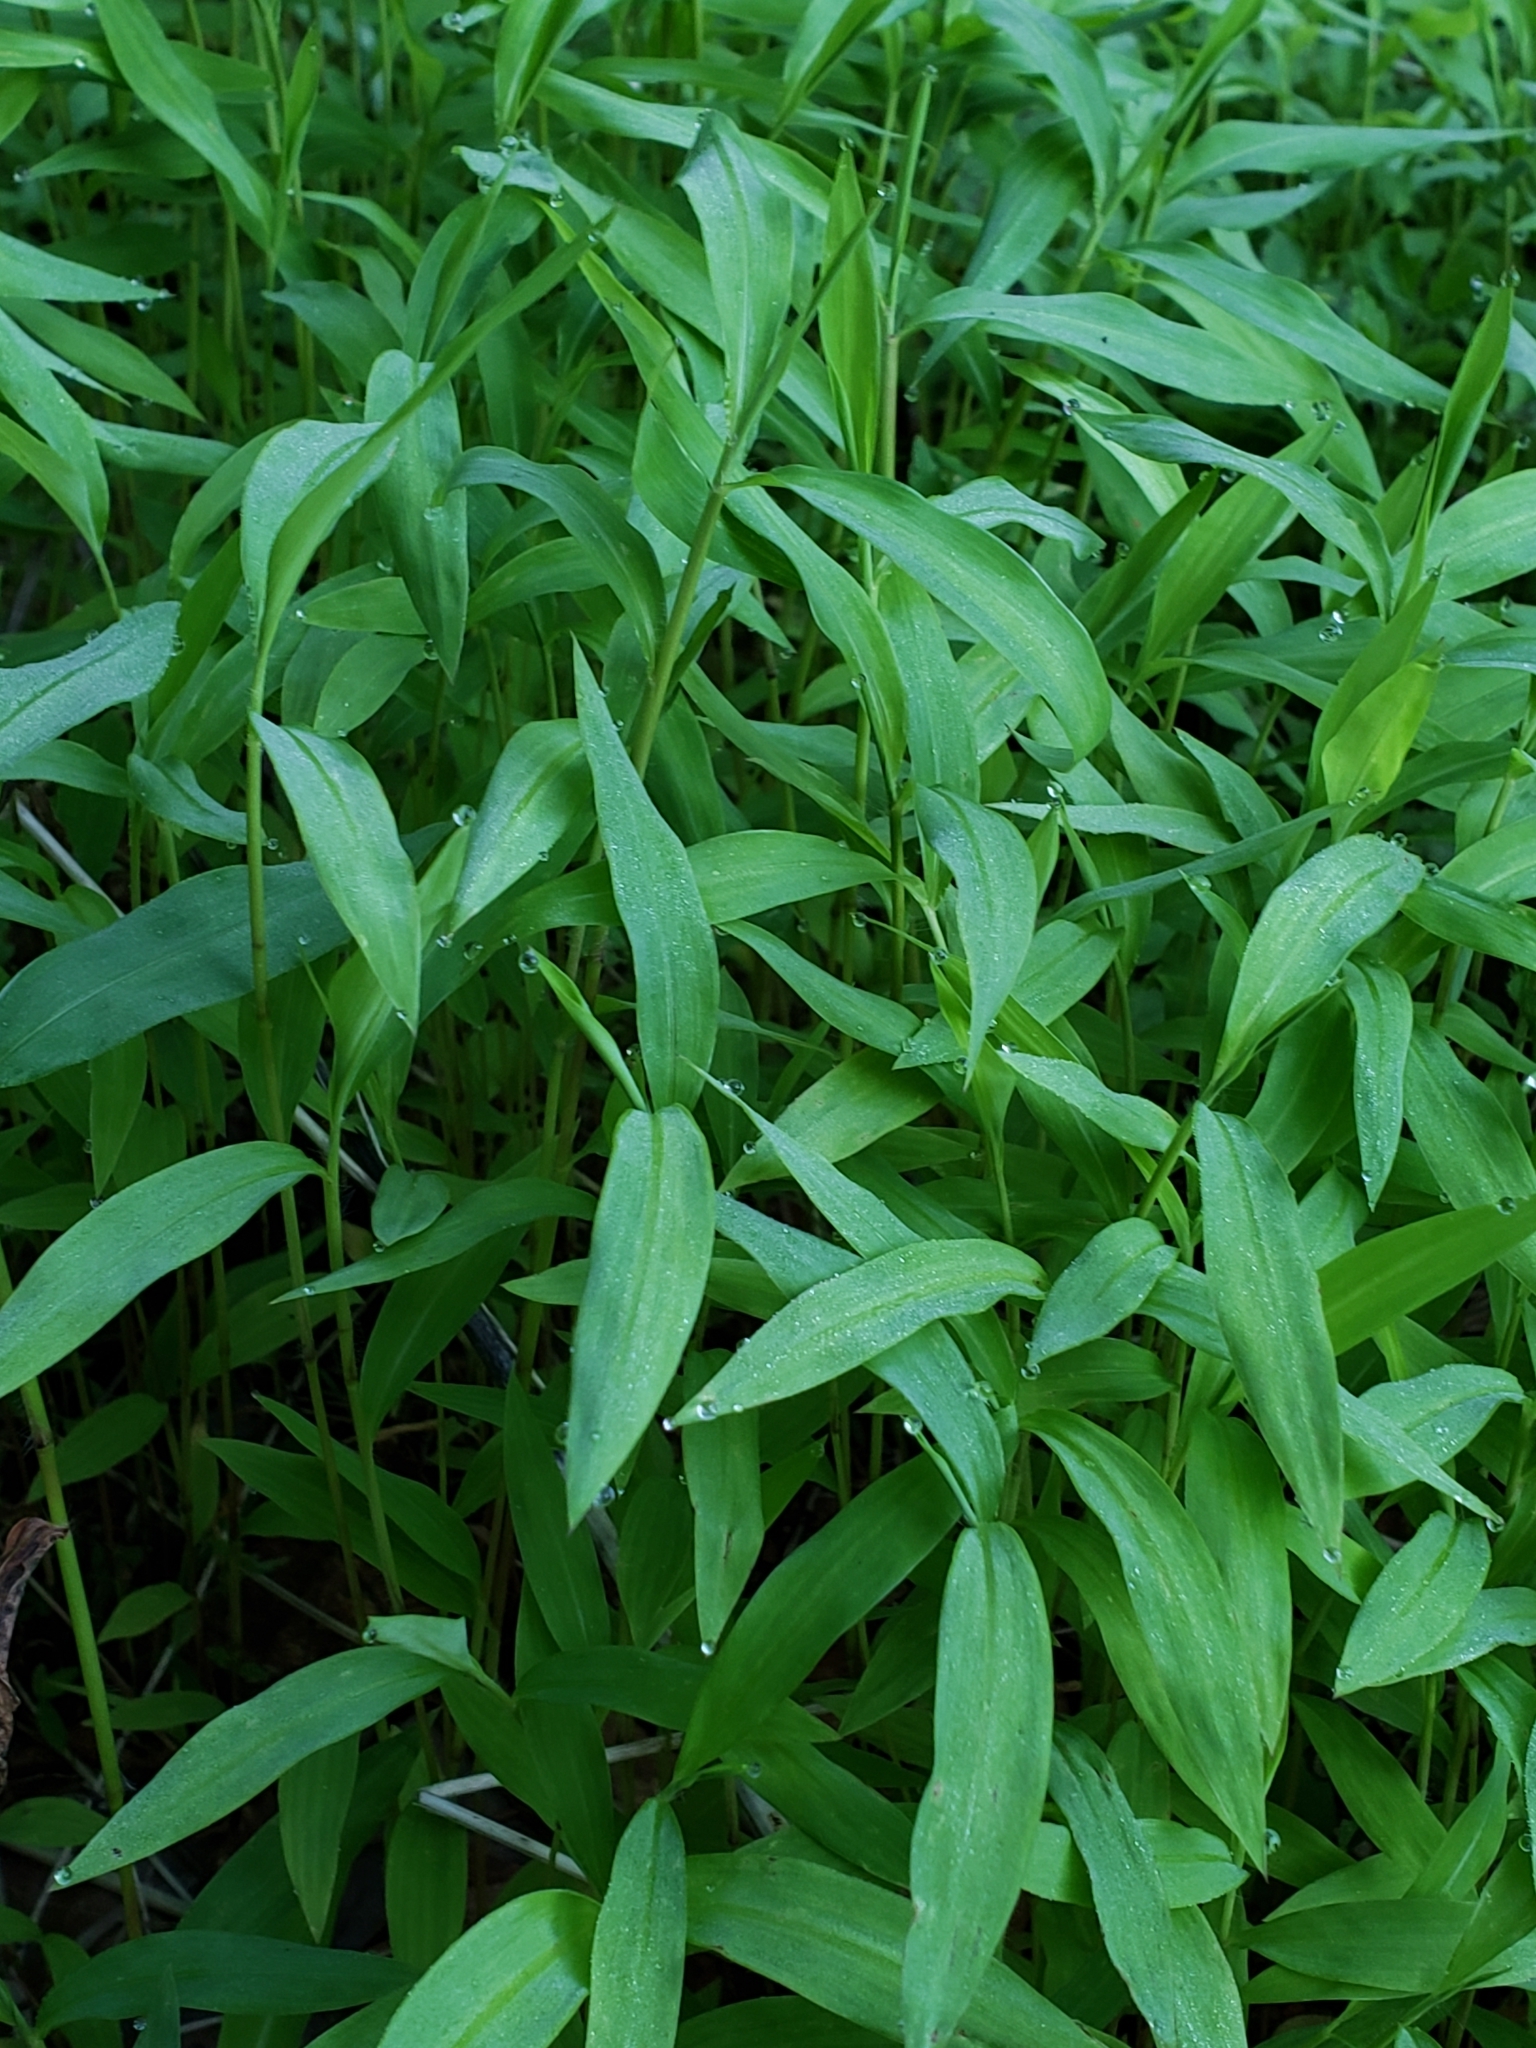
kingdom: Plantae
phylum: Tracheophyta
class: Liliopsida
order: Poales
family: Poaceae
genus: Microstegium
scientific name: Microstegium vimineum
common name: Japanese stiltgrass
